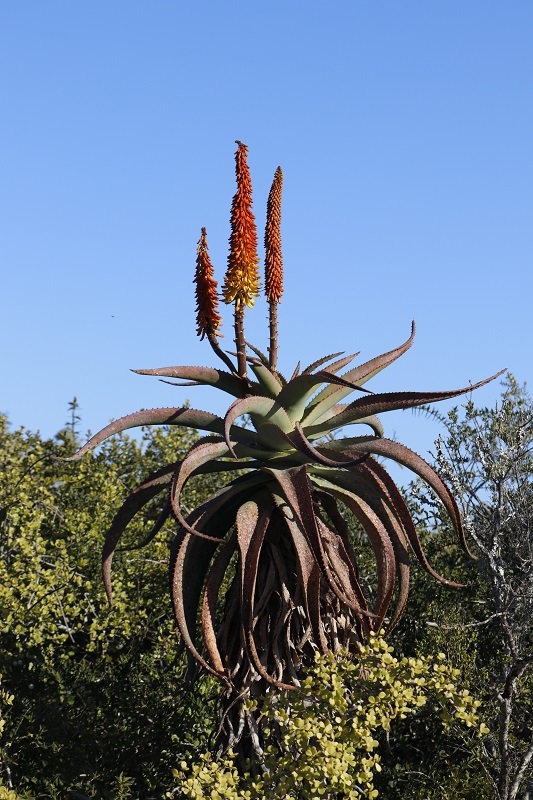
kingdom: Plantae
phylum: Tracheophyta
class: Liliopsida
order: Asparagales
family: Asphodelaceae
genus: Aloe
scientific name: Aloe africana
